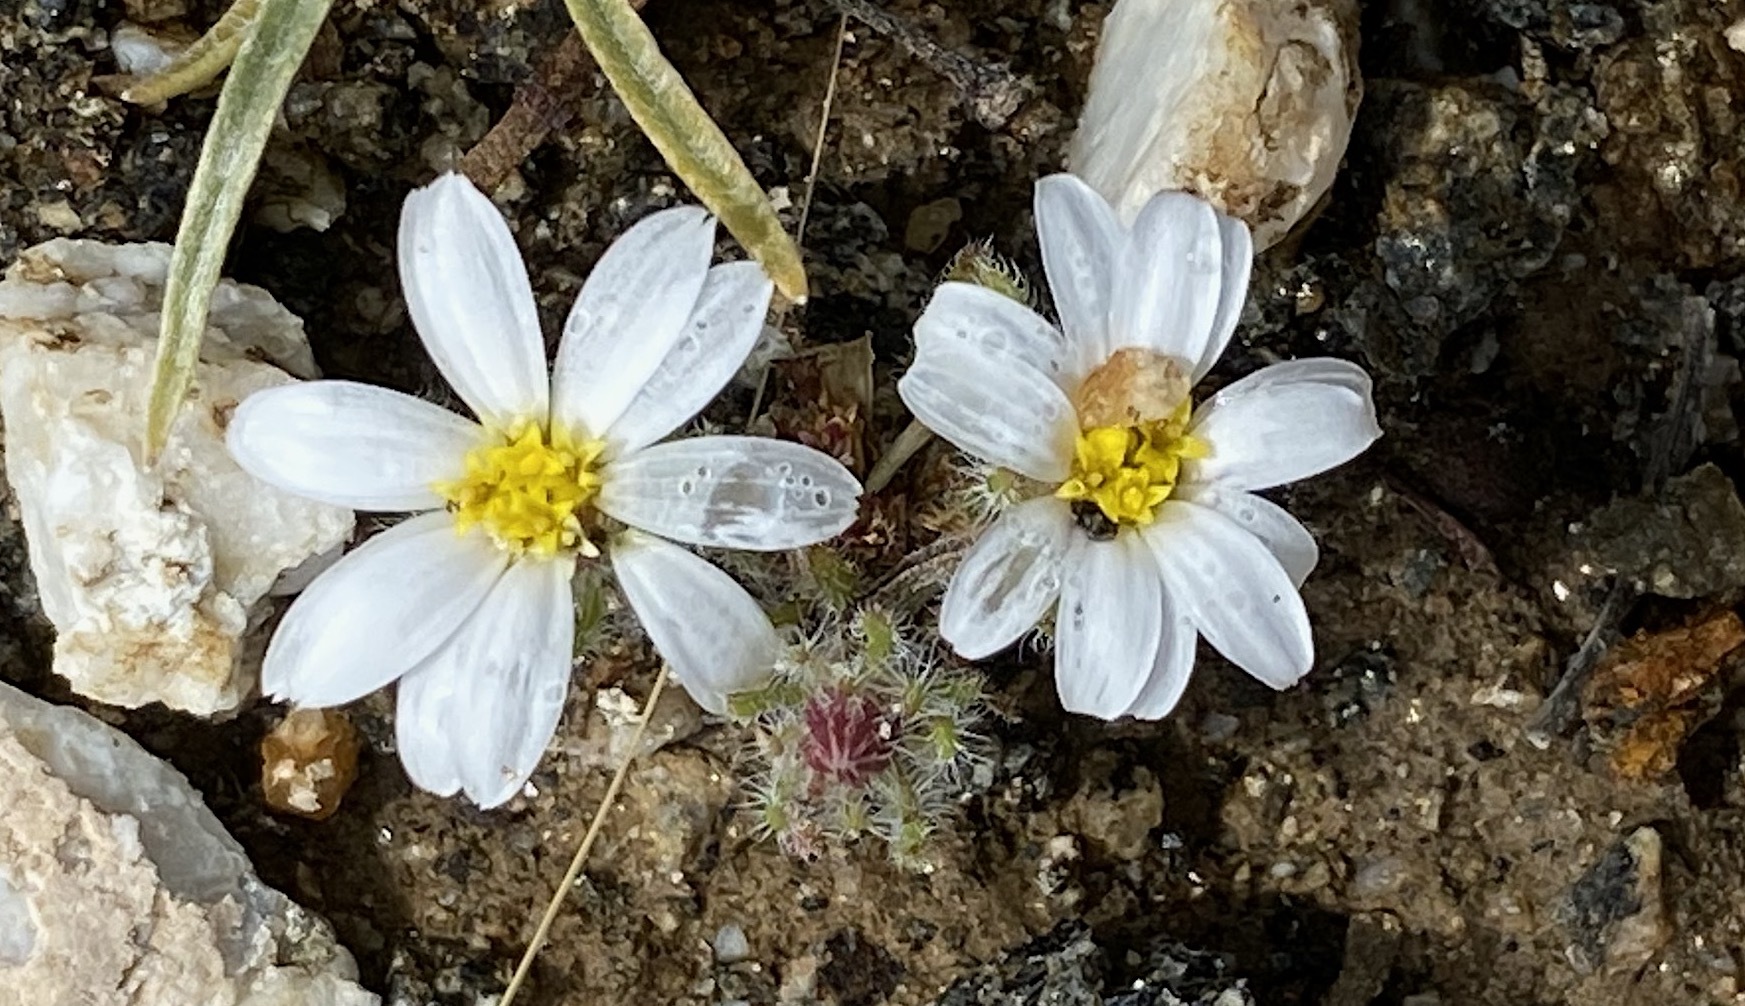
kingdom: Plantae
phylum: Tracheophyta
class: Magnoliopsida
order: Asterales
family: Asteraceae
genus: Monoptilon
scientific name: Monoptilon bellioides
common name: Bristly desertstar
